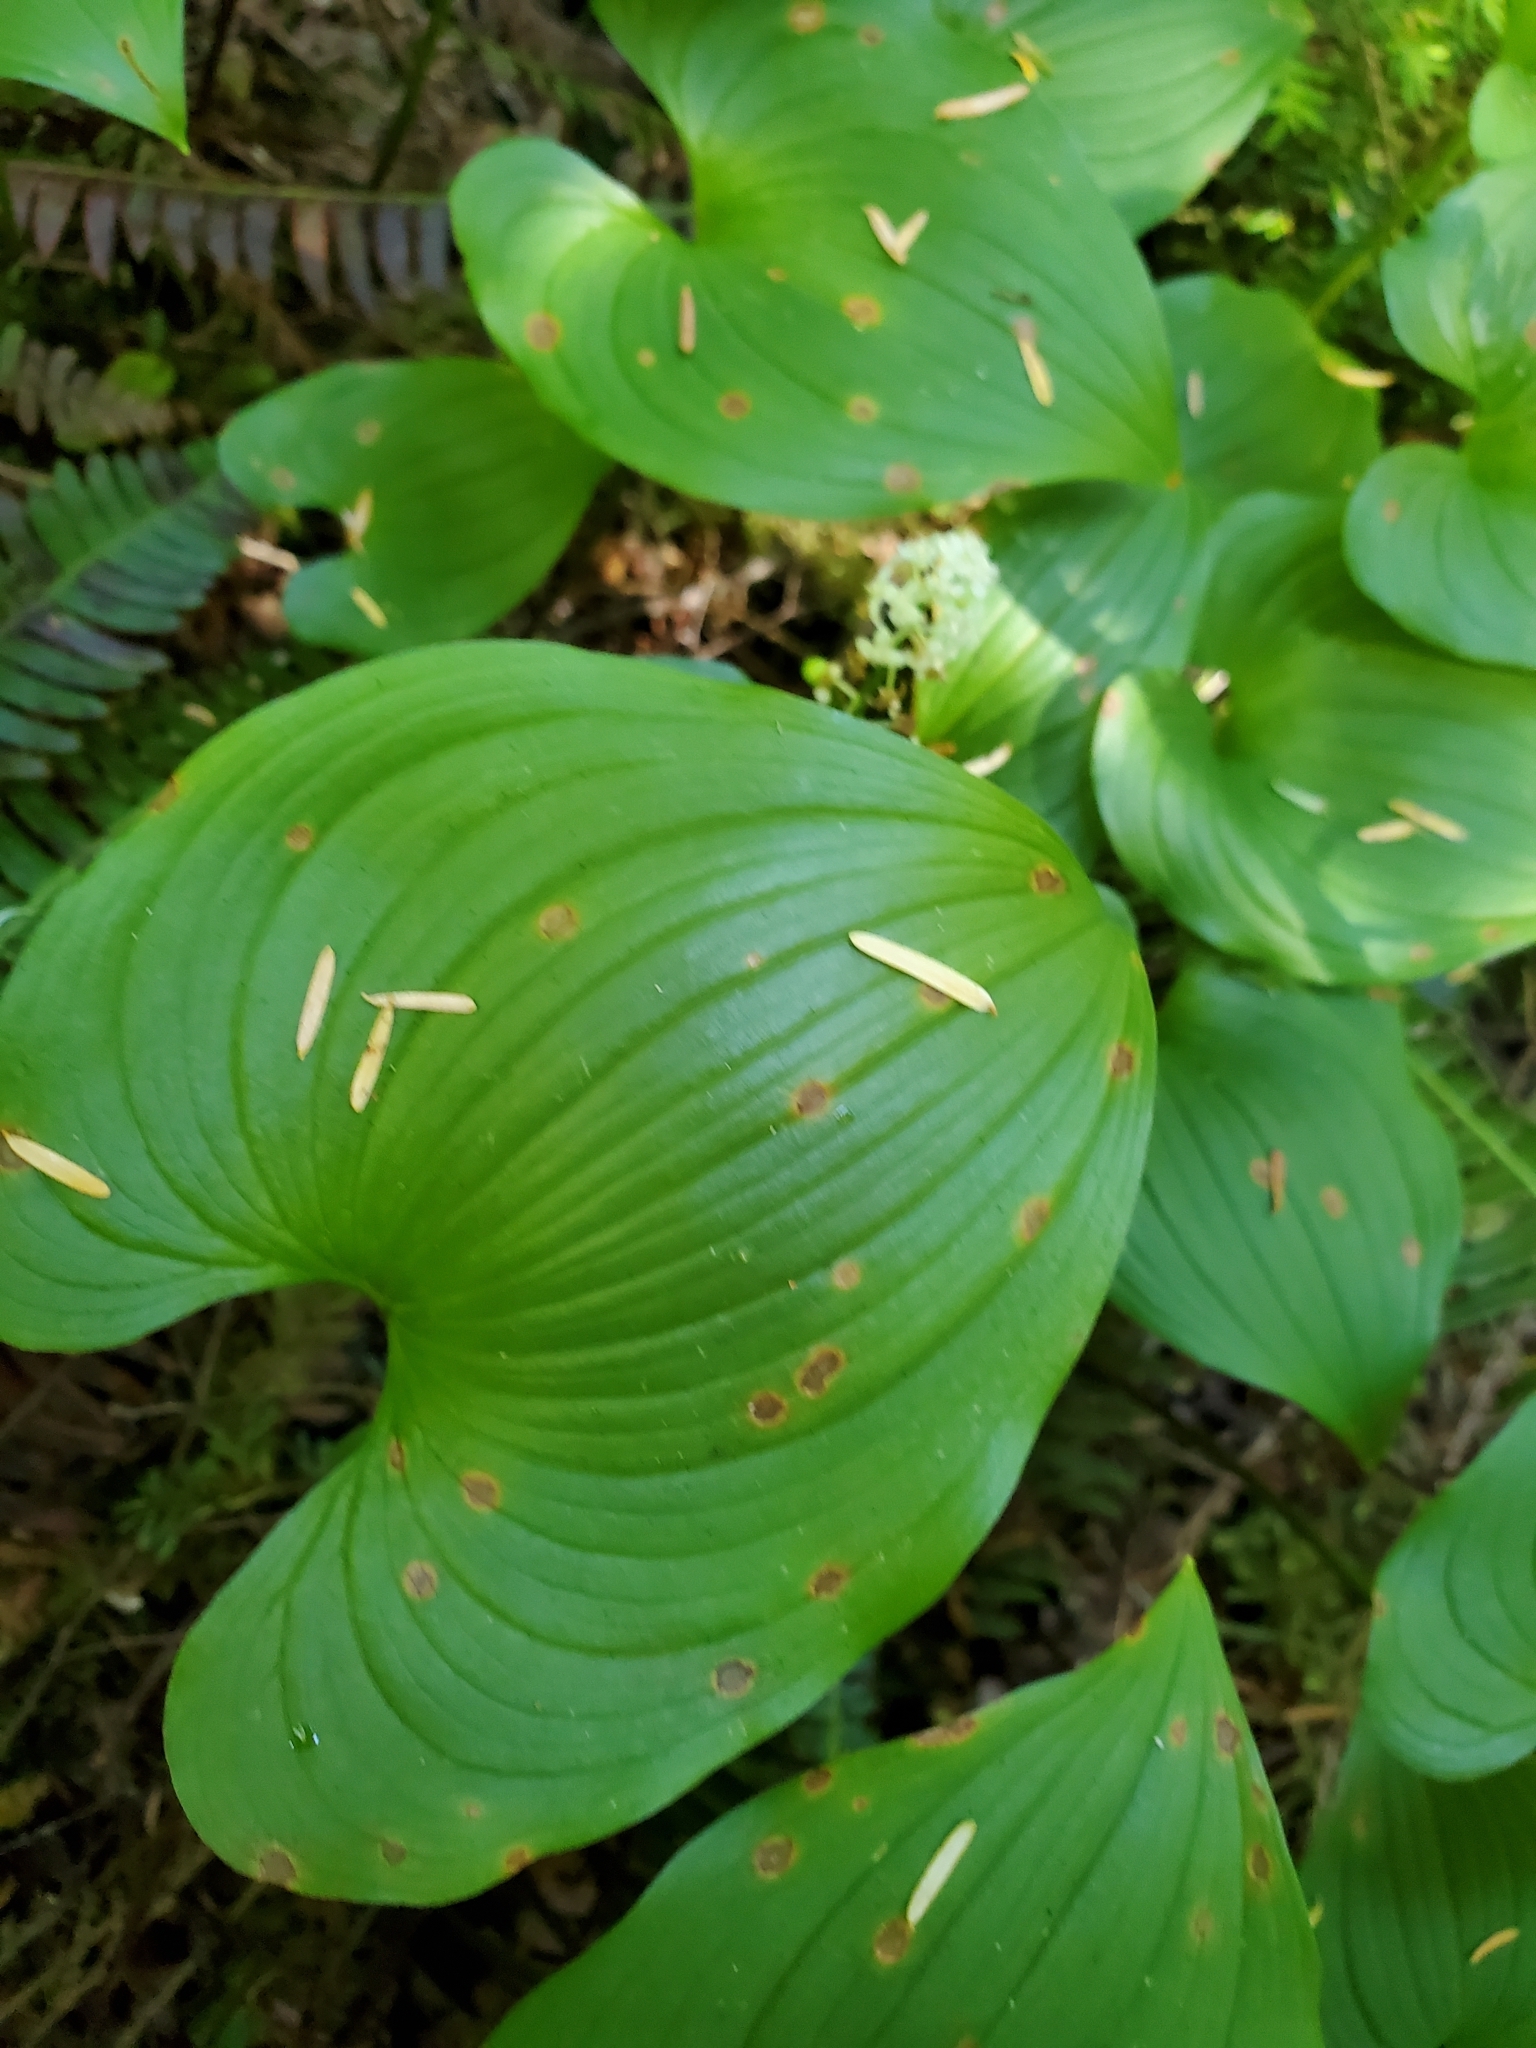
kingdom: Plantae
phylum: Tracheophyta
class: Liliopsida
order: Asparagales
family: Asparagaceae
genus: Maianthemum
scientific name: Maianthemum dilatatum
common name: False lily-of-the-valley
